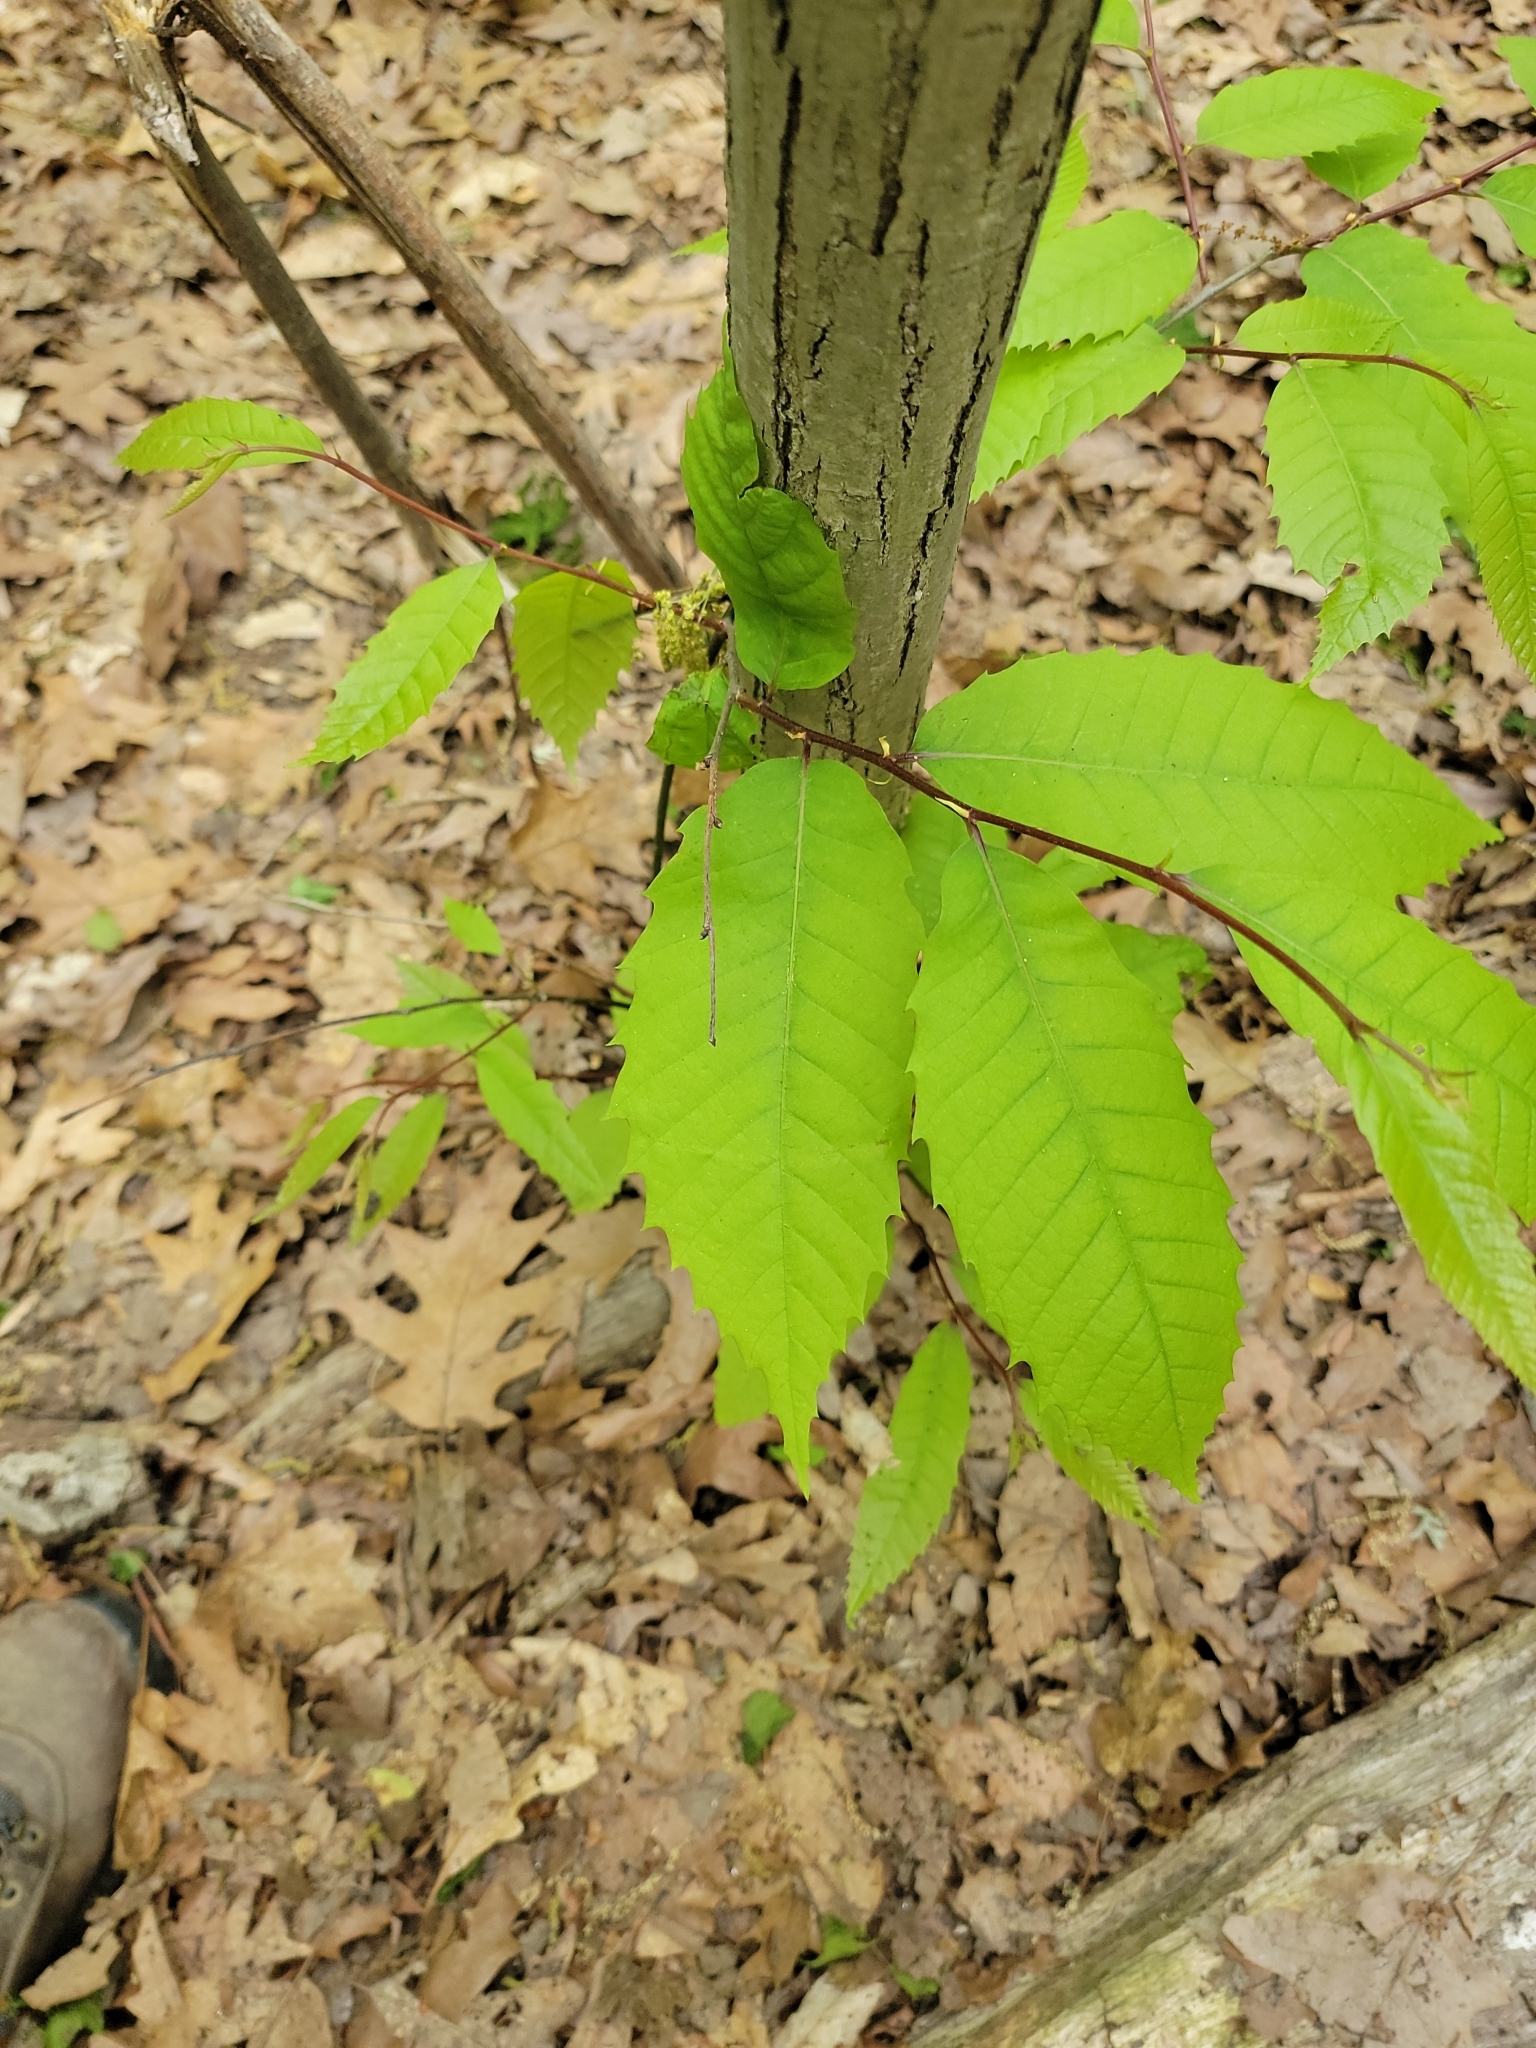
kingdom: Plantae
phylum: Tracheophyta
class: Magnoliopsida
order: Fagales
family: Fagaceae
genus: Castanea
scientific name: Castanea dentata
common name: American chestnut
